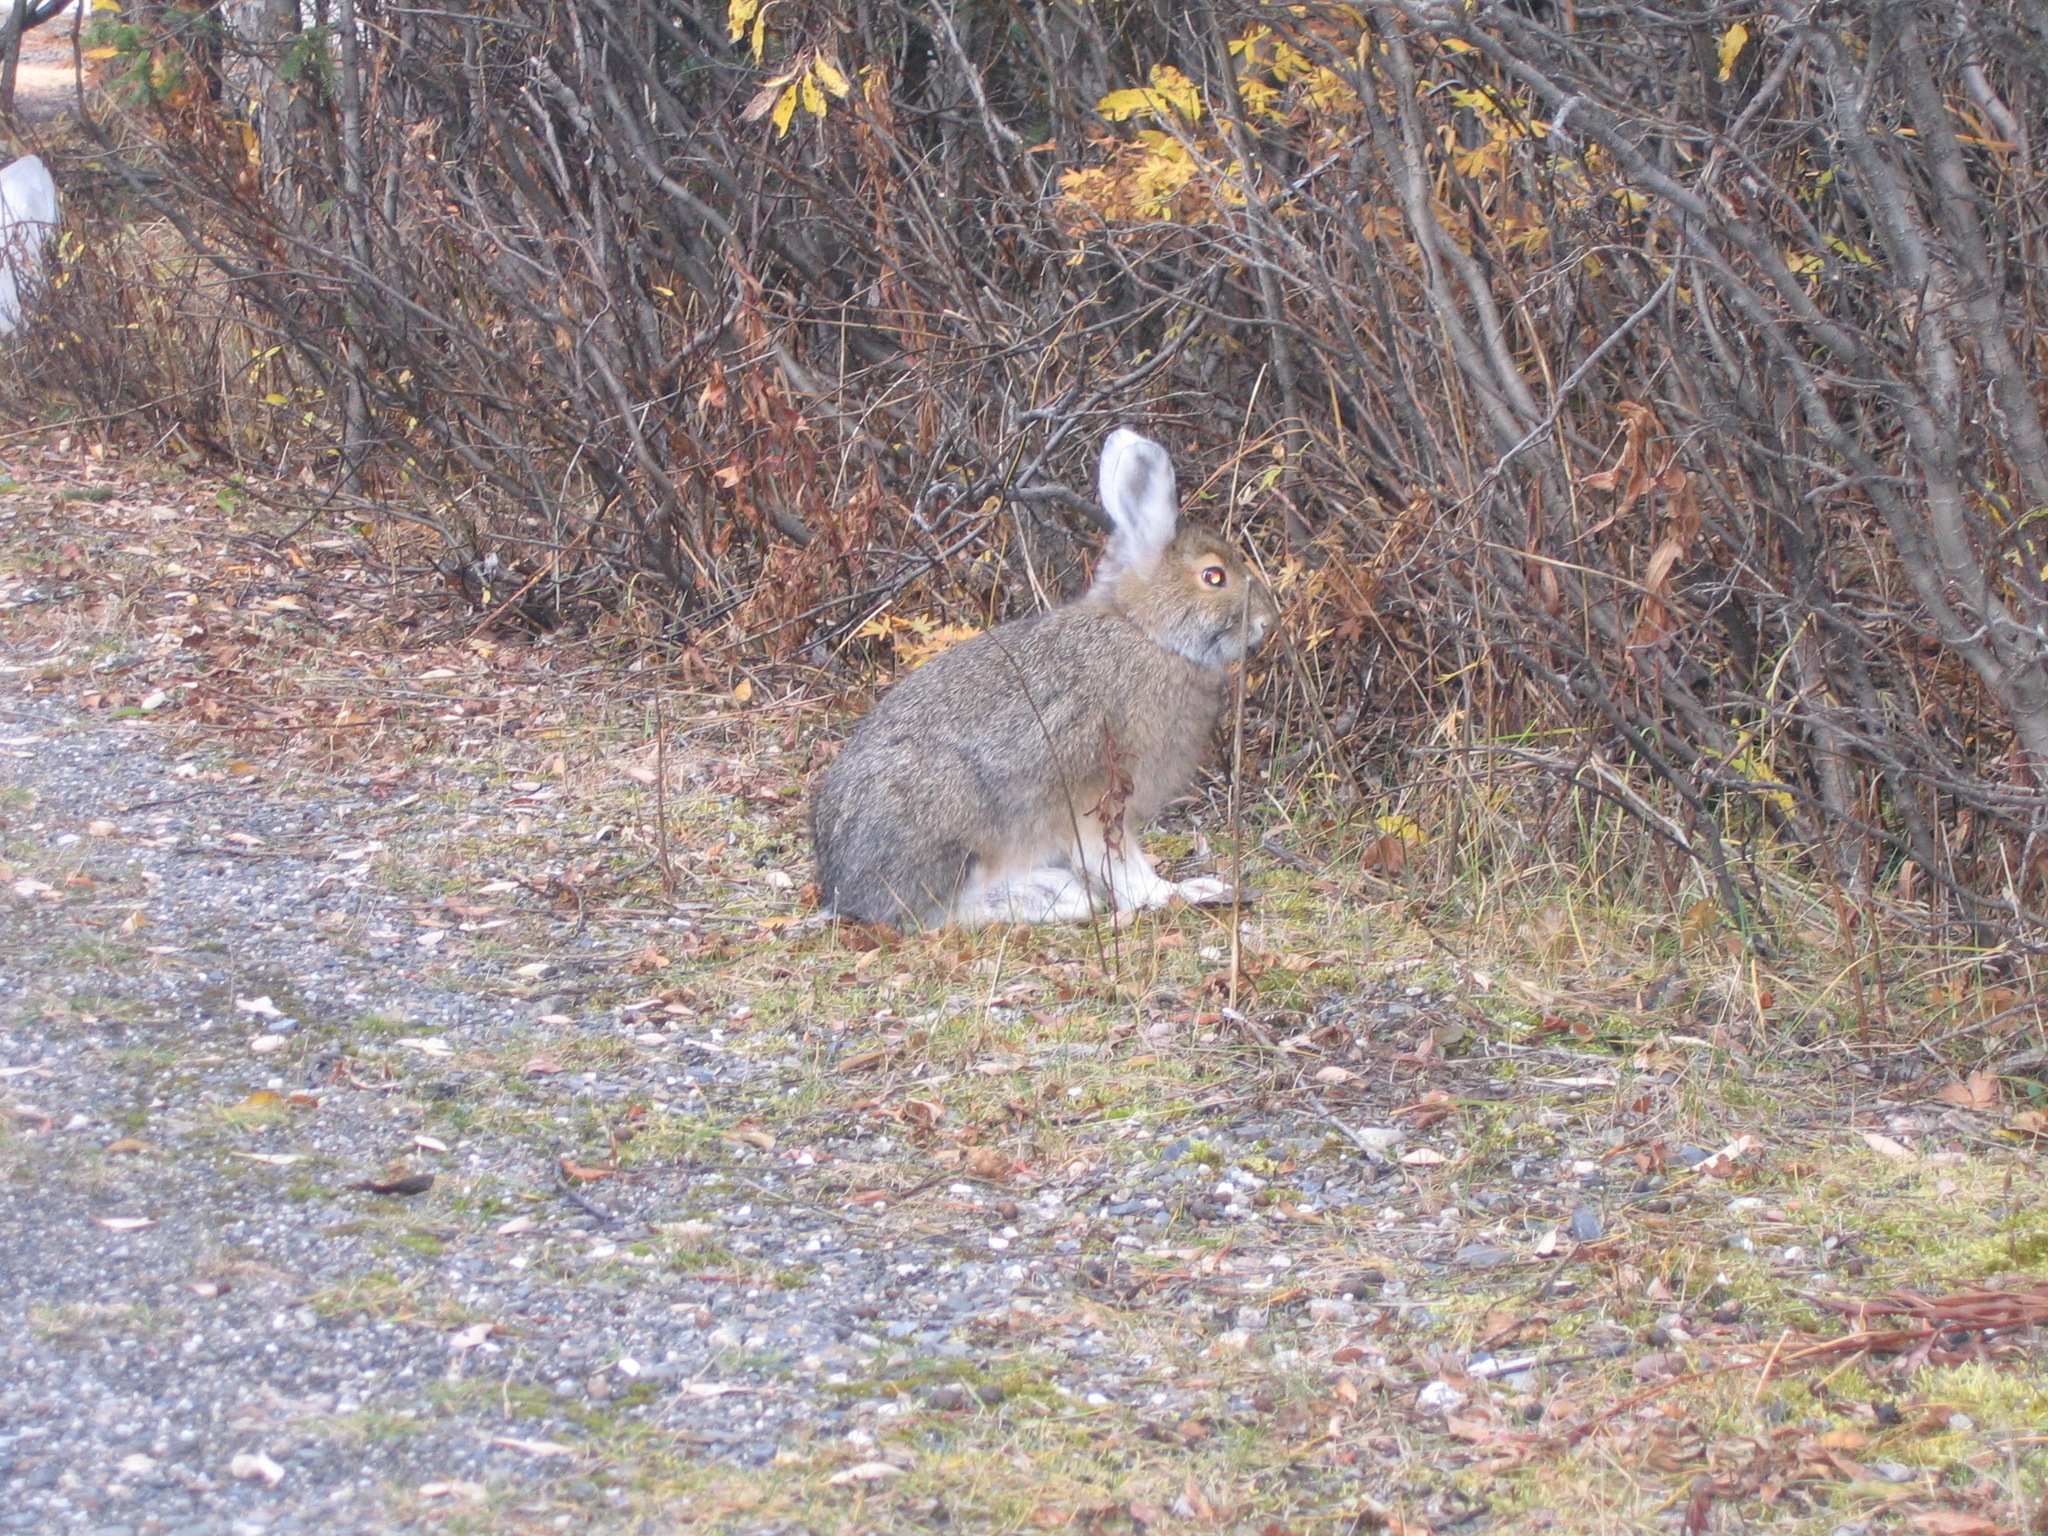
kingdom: Animalia
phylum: Chordata
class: Mammalia
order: Lagomorpha
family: Leporidae
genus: Lepus
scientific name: Lepus americanus
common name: Snowshoe hare
